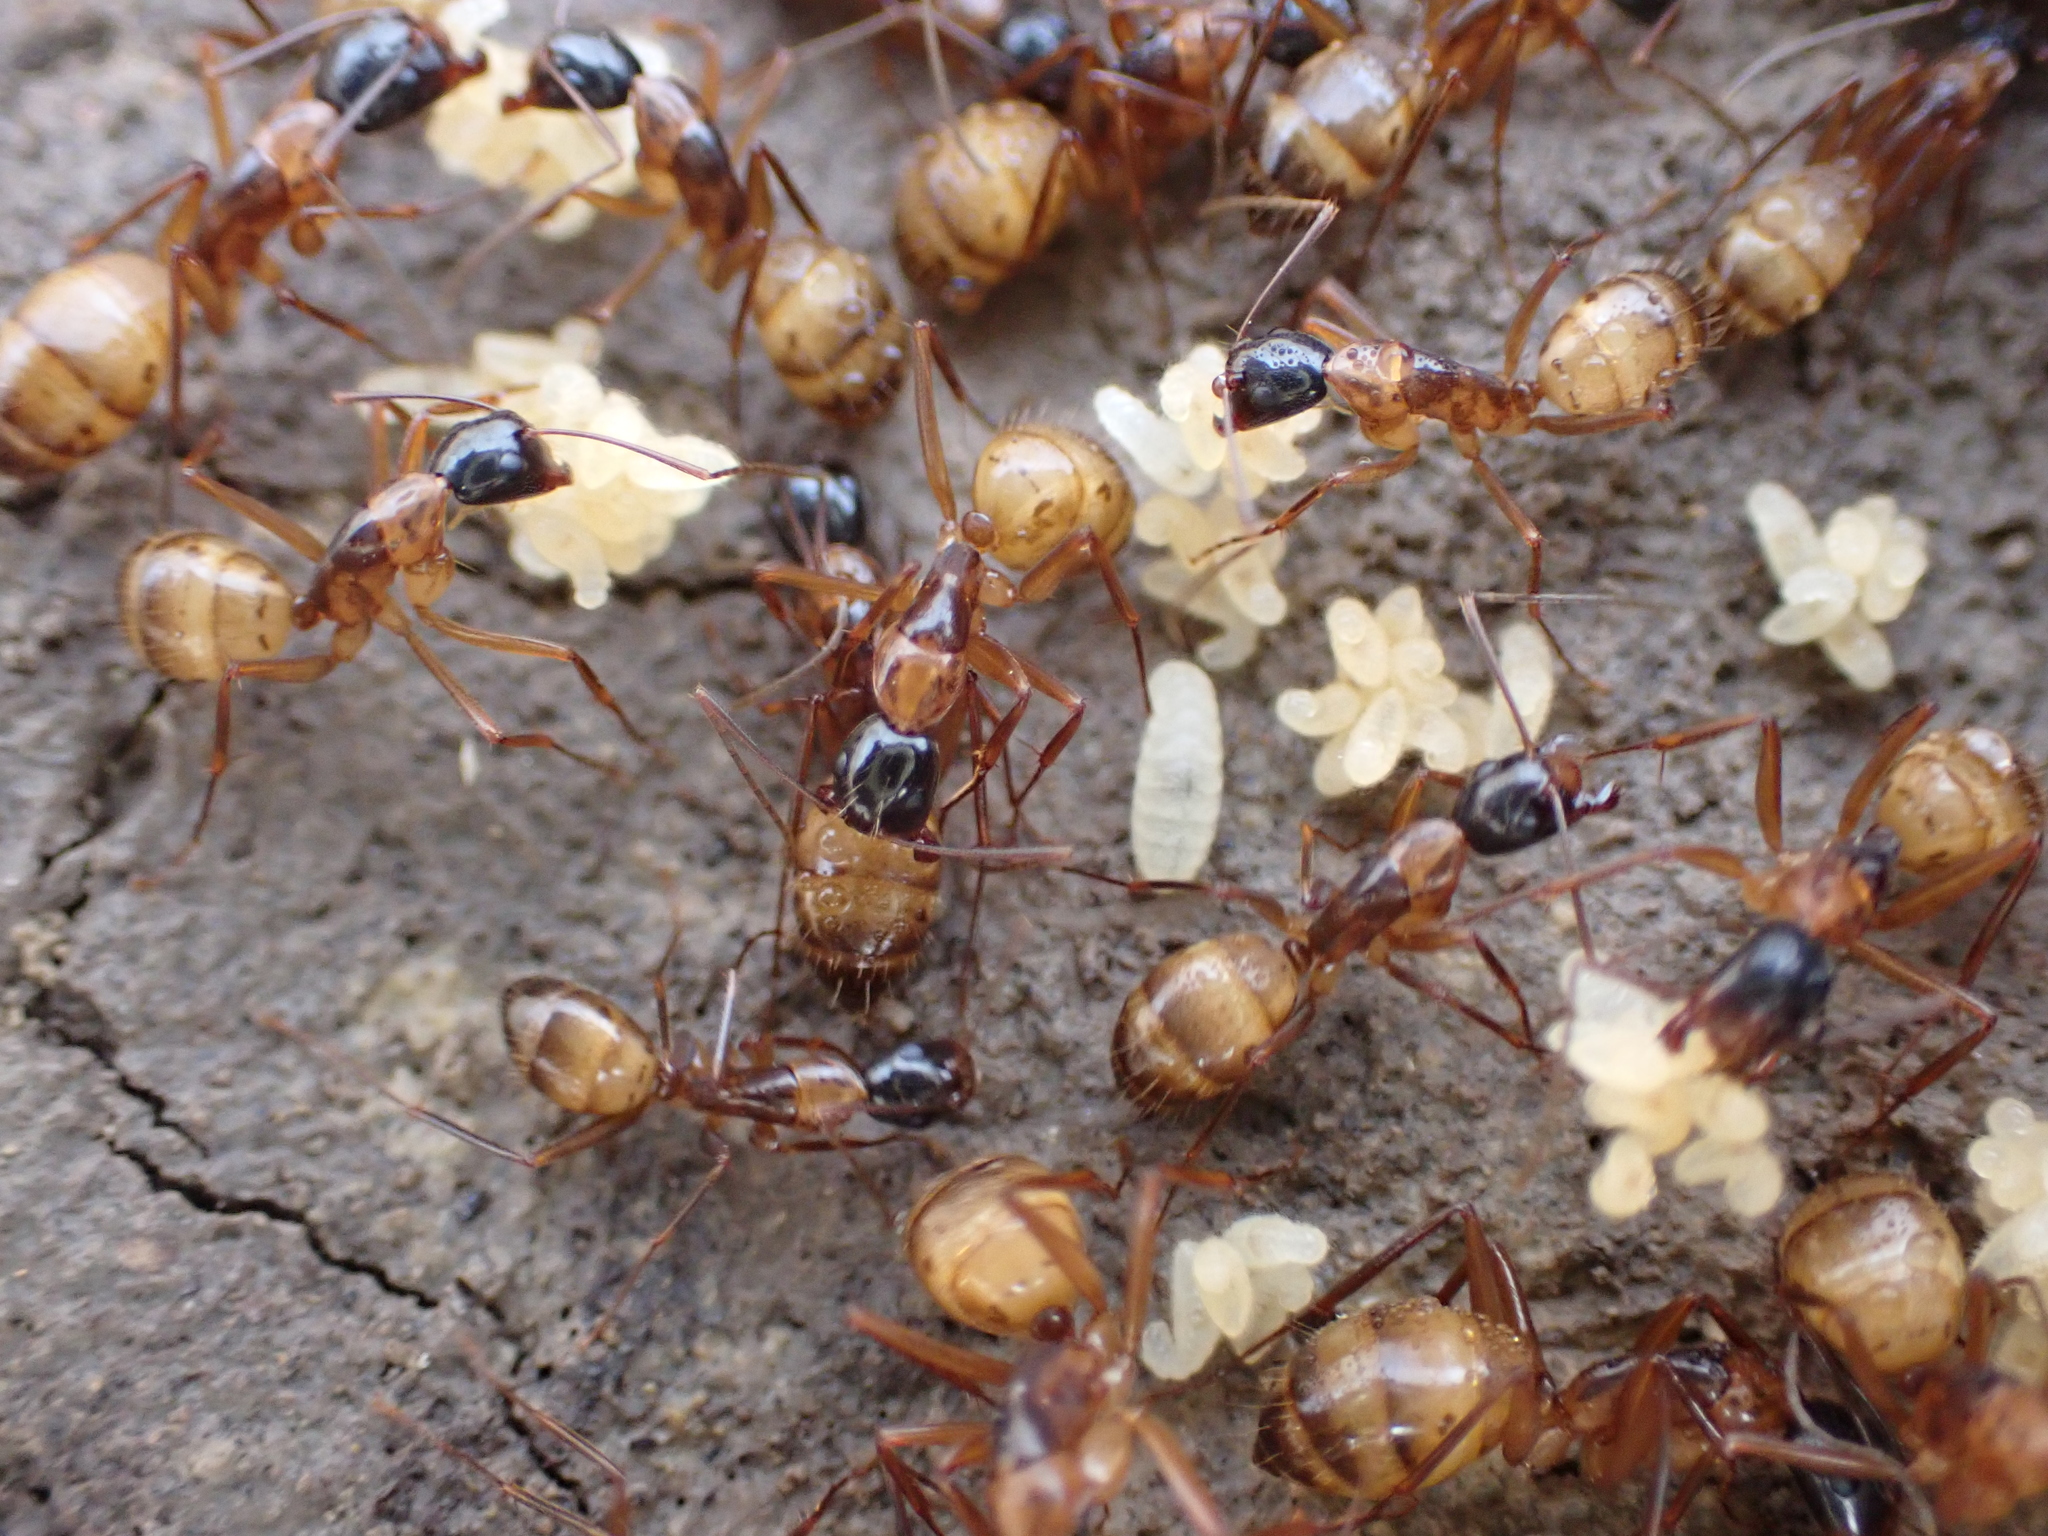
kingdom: Animalia
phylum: Arthropoda
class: Insecta
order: Hymenoptera
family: Formicidae
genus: Camponotus
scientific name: Camponotus americanus
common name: American carpenter ant
